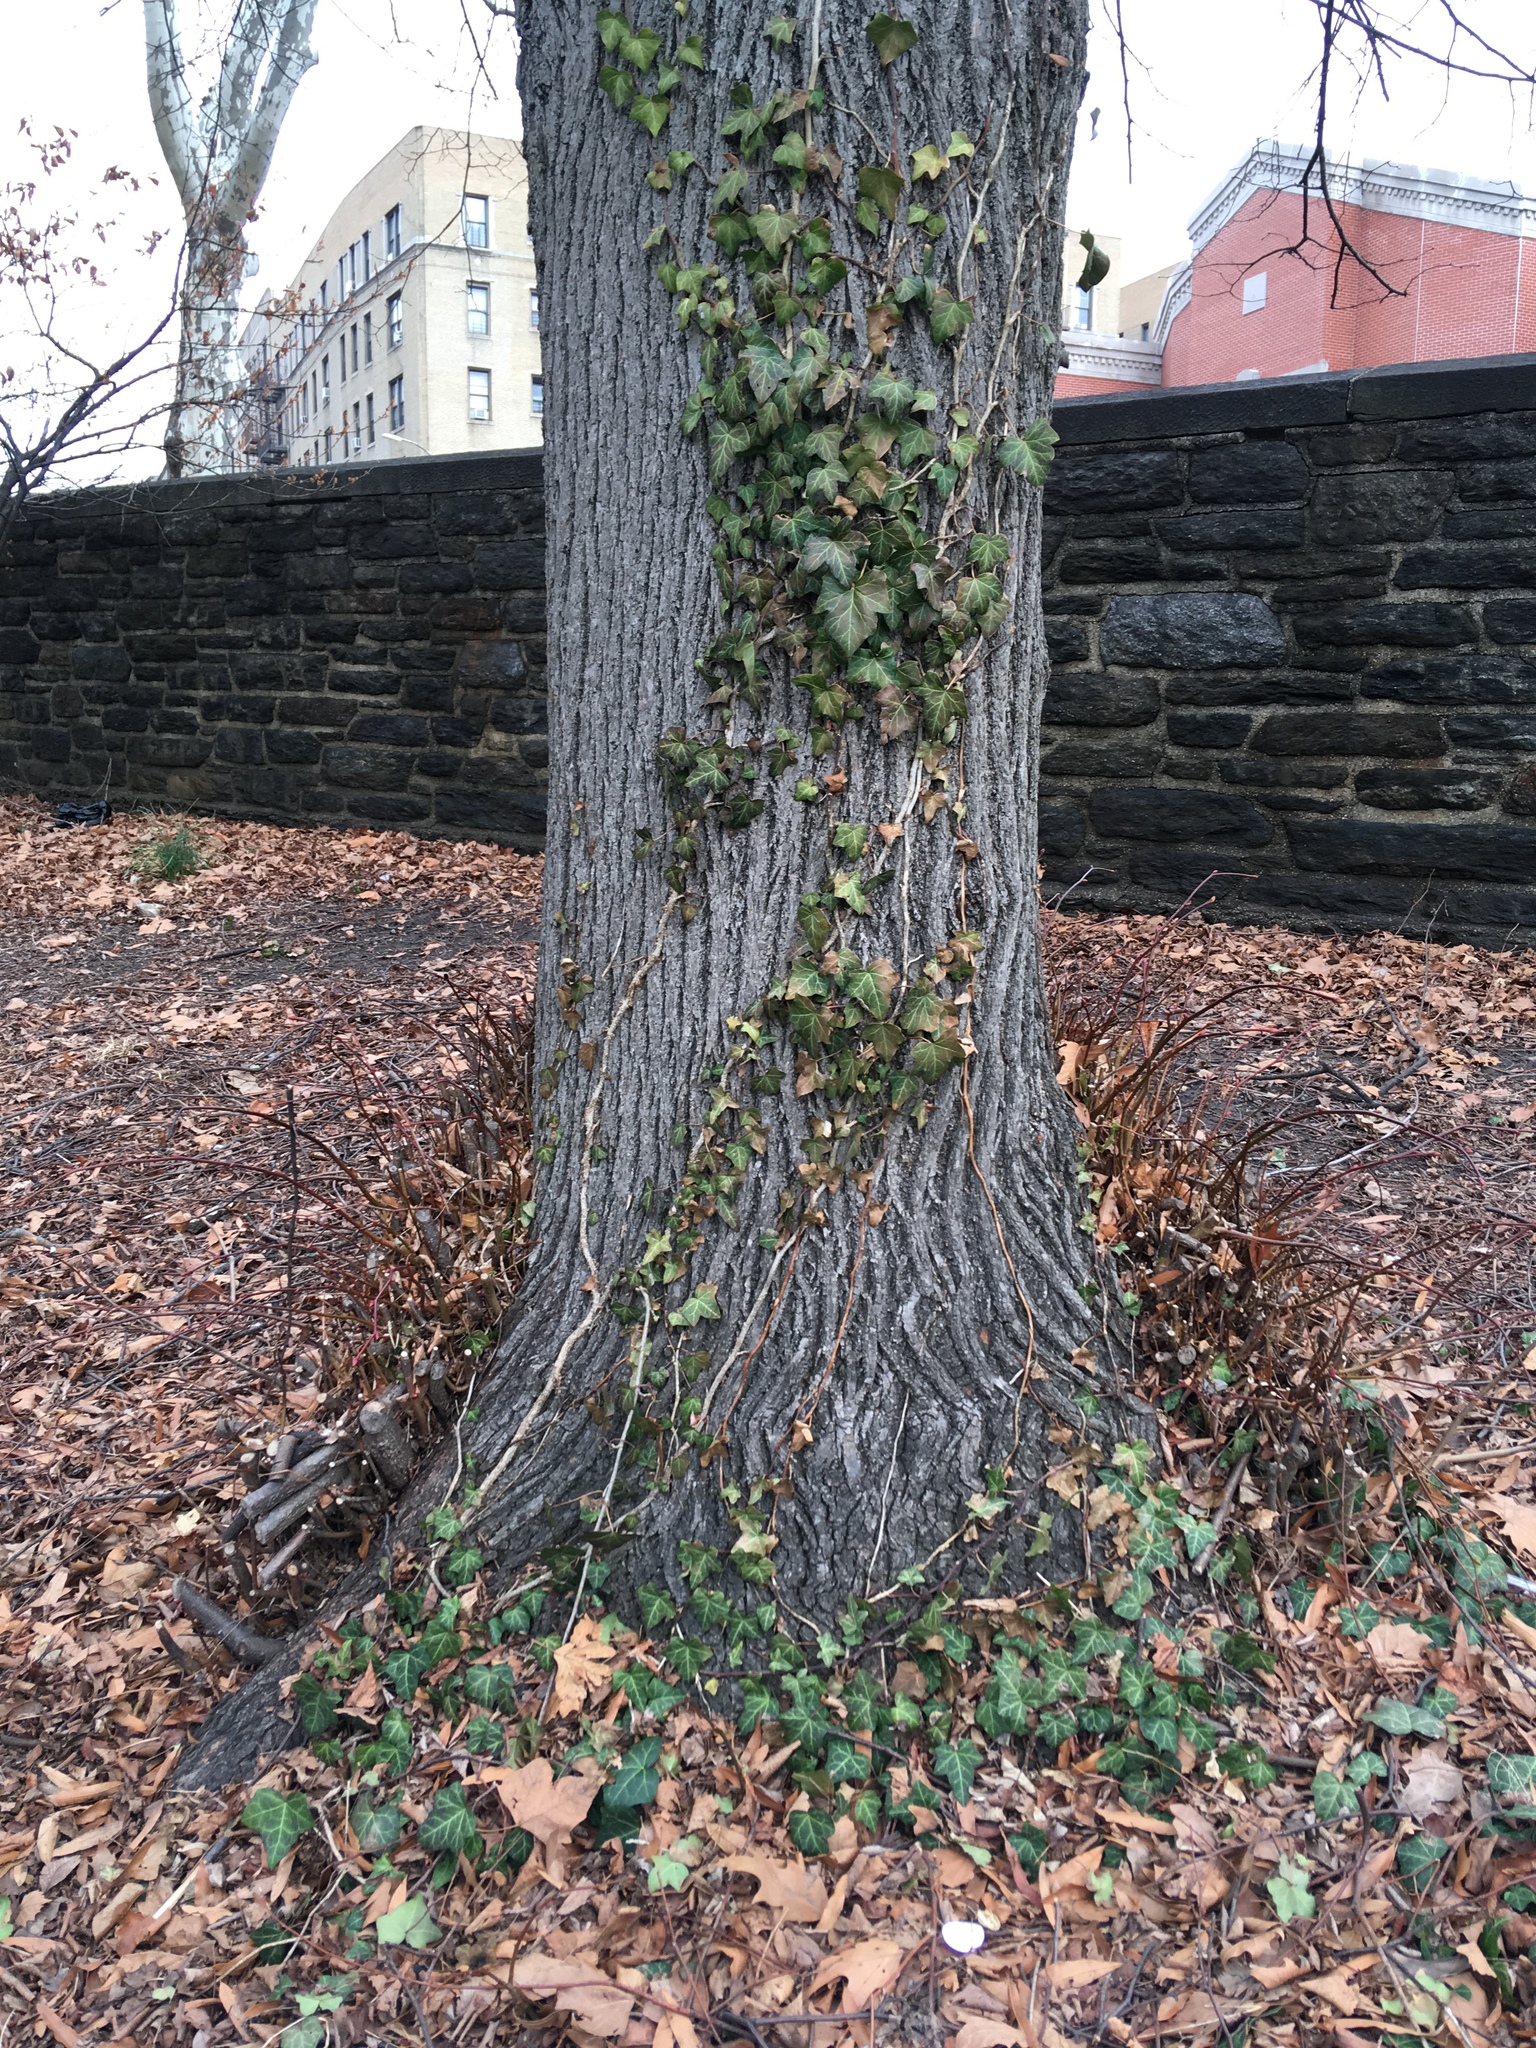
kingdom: Plantae
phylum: Tracheophyta
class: Magnoliopsida
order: Apiales
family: Araliaceae
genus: Hedera
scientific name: Hedera helix
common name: Ivy
